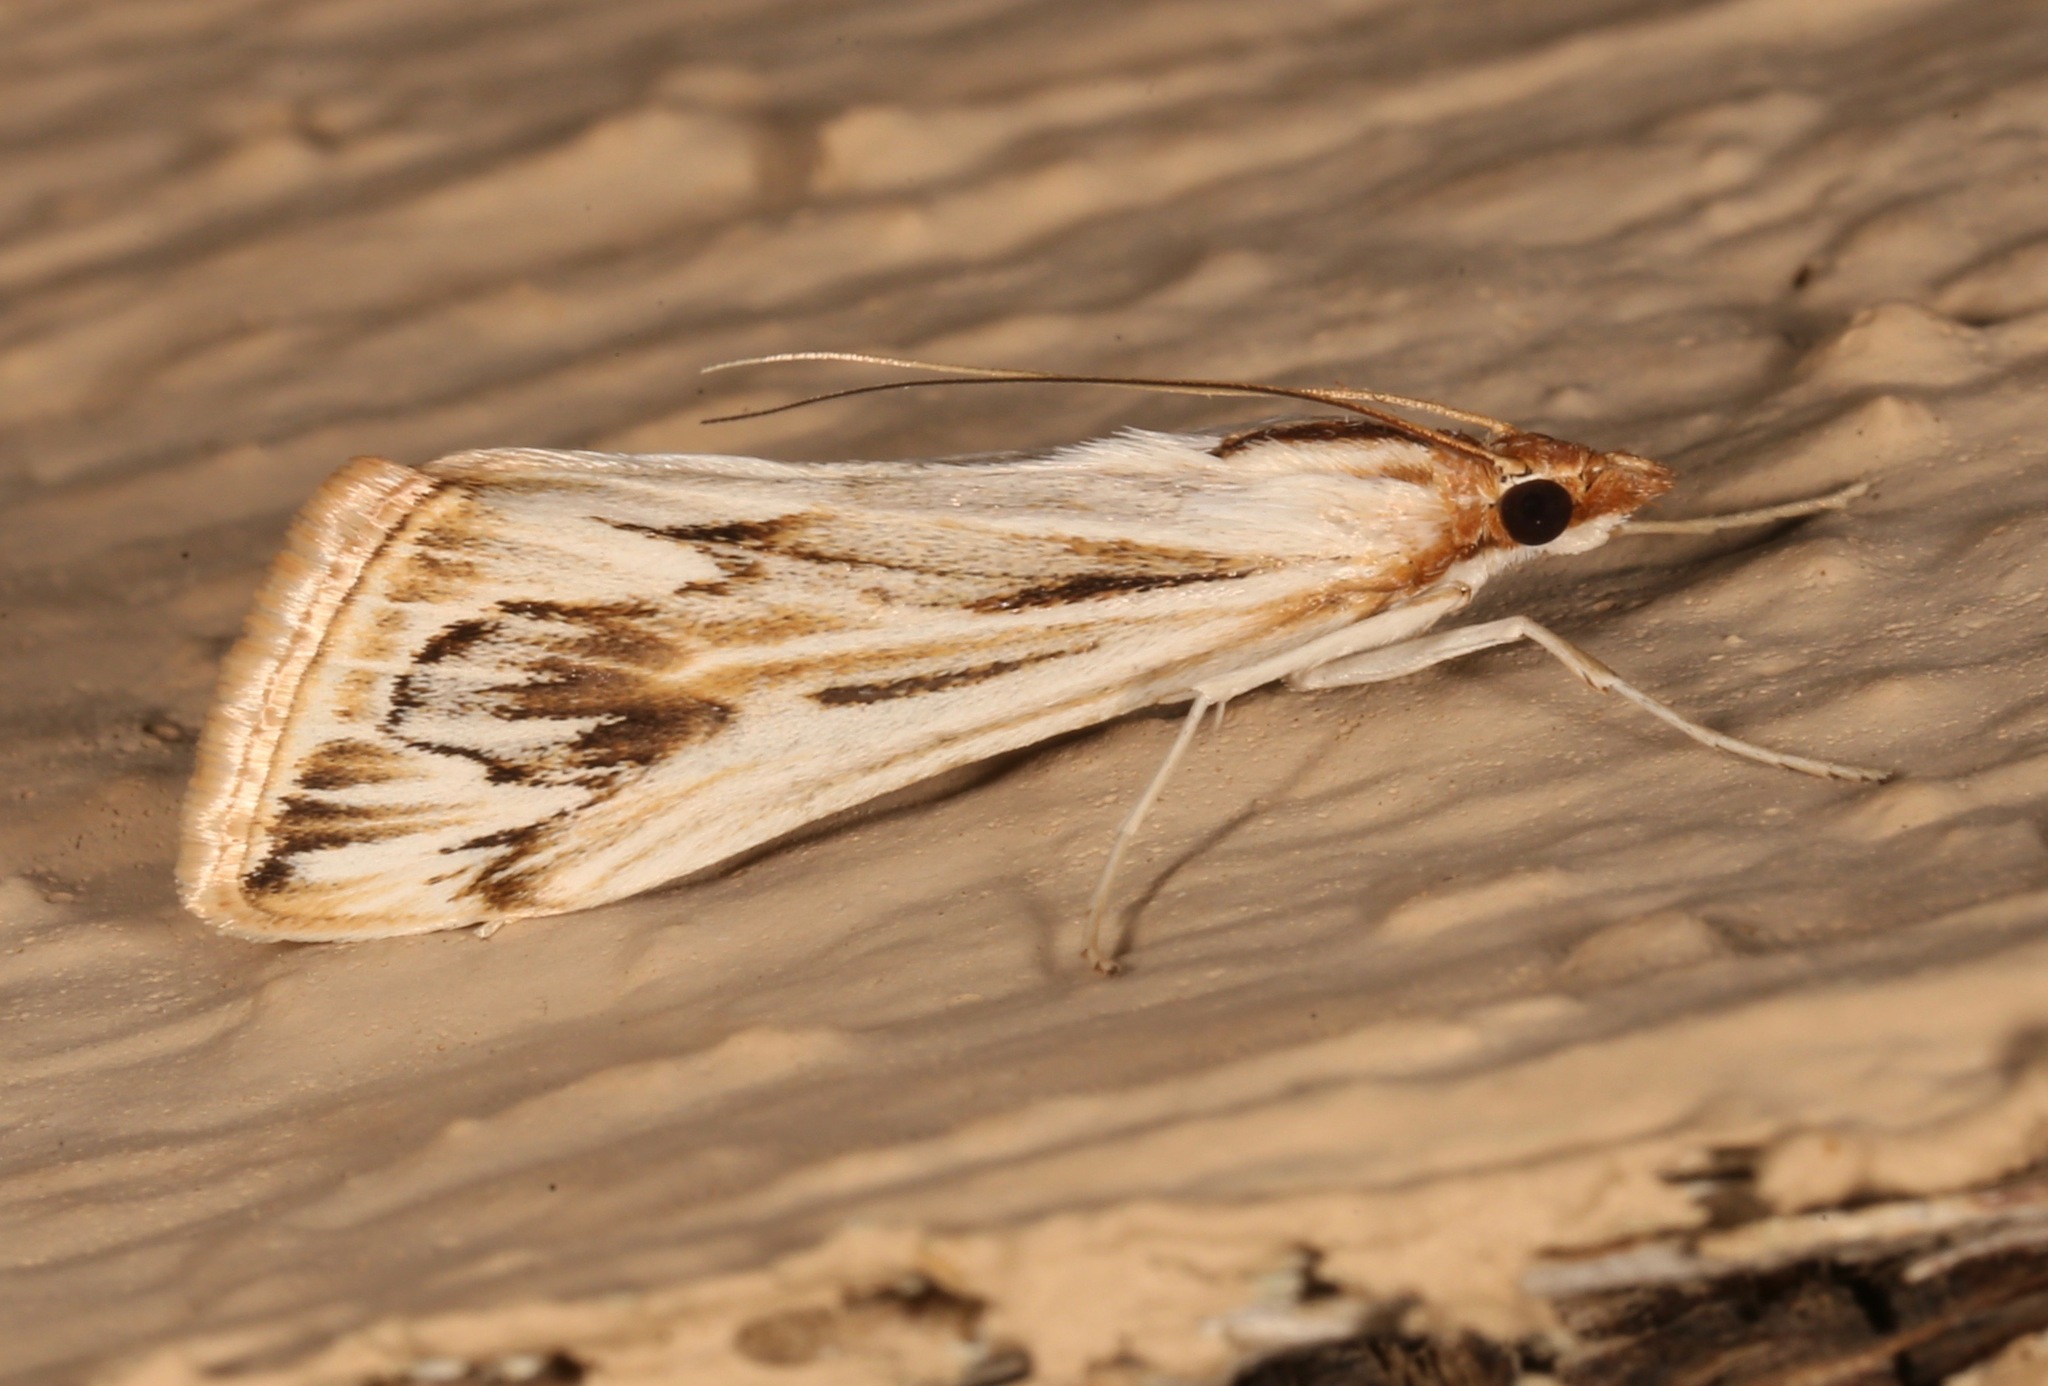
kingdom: Animalia
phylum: Arthropoda
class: Insecta
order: Lepidoptera
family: Crambidae
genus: Loxostege
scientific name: Loxostege oberthuralis
